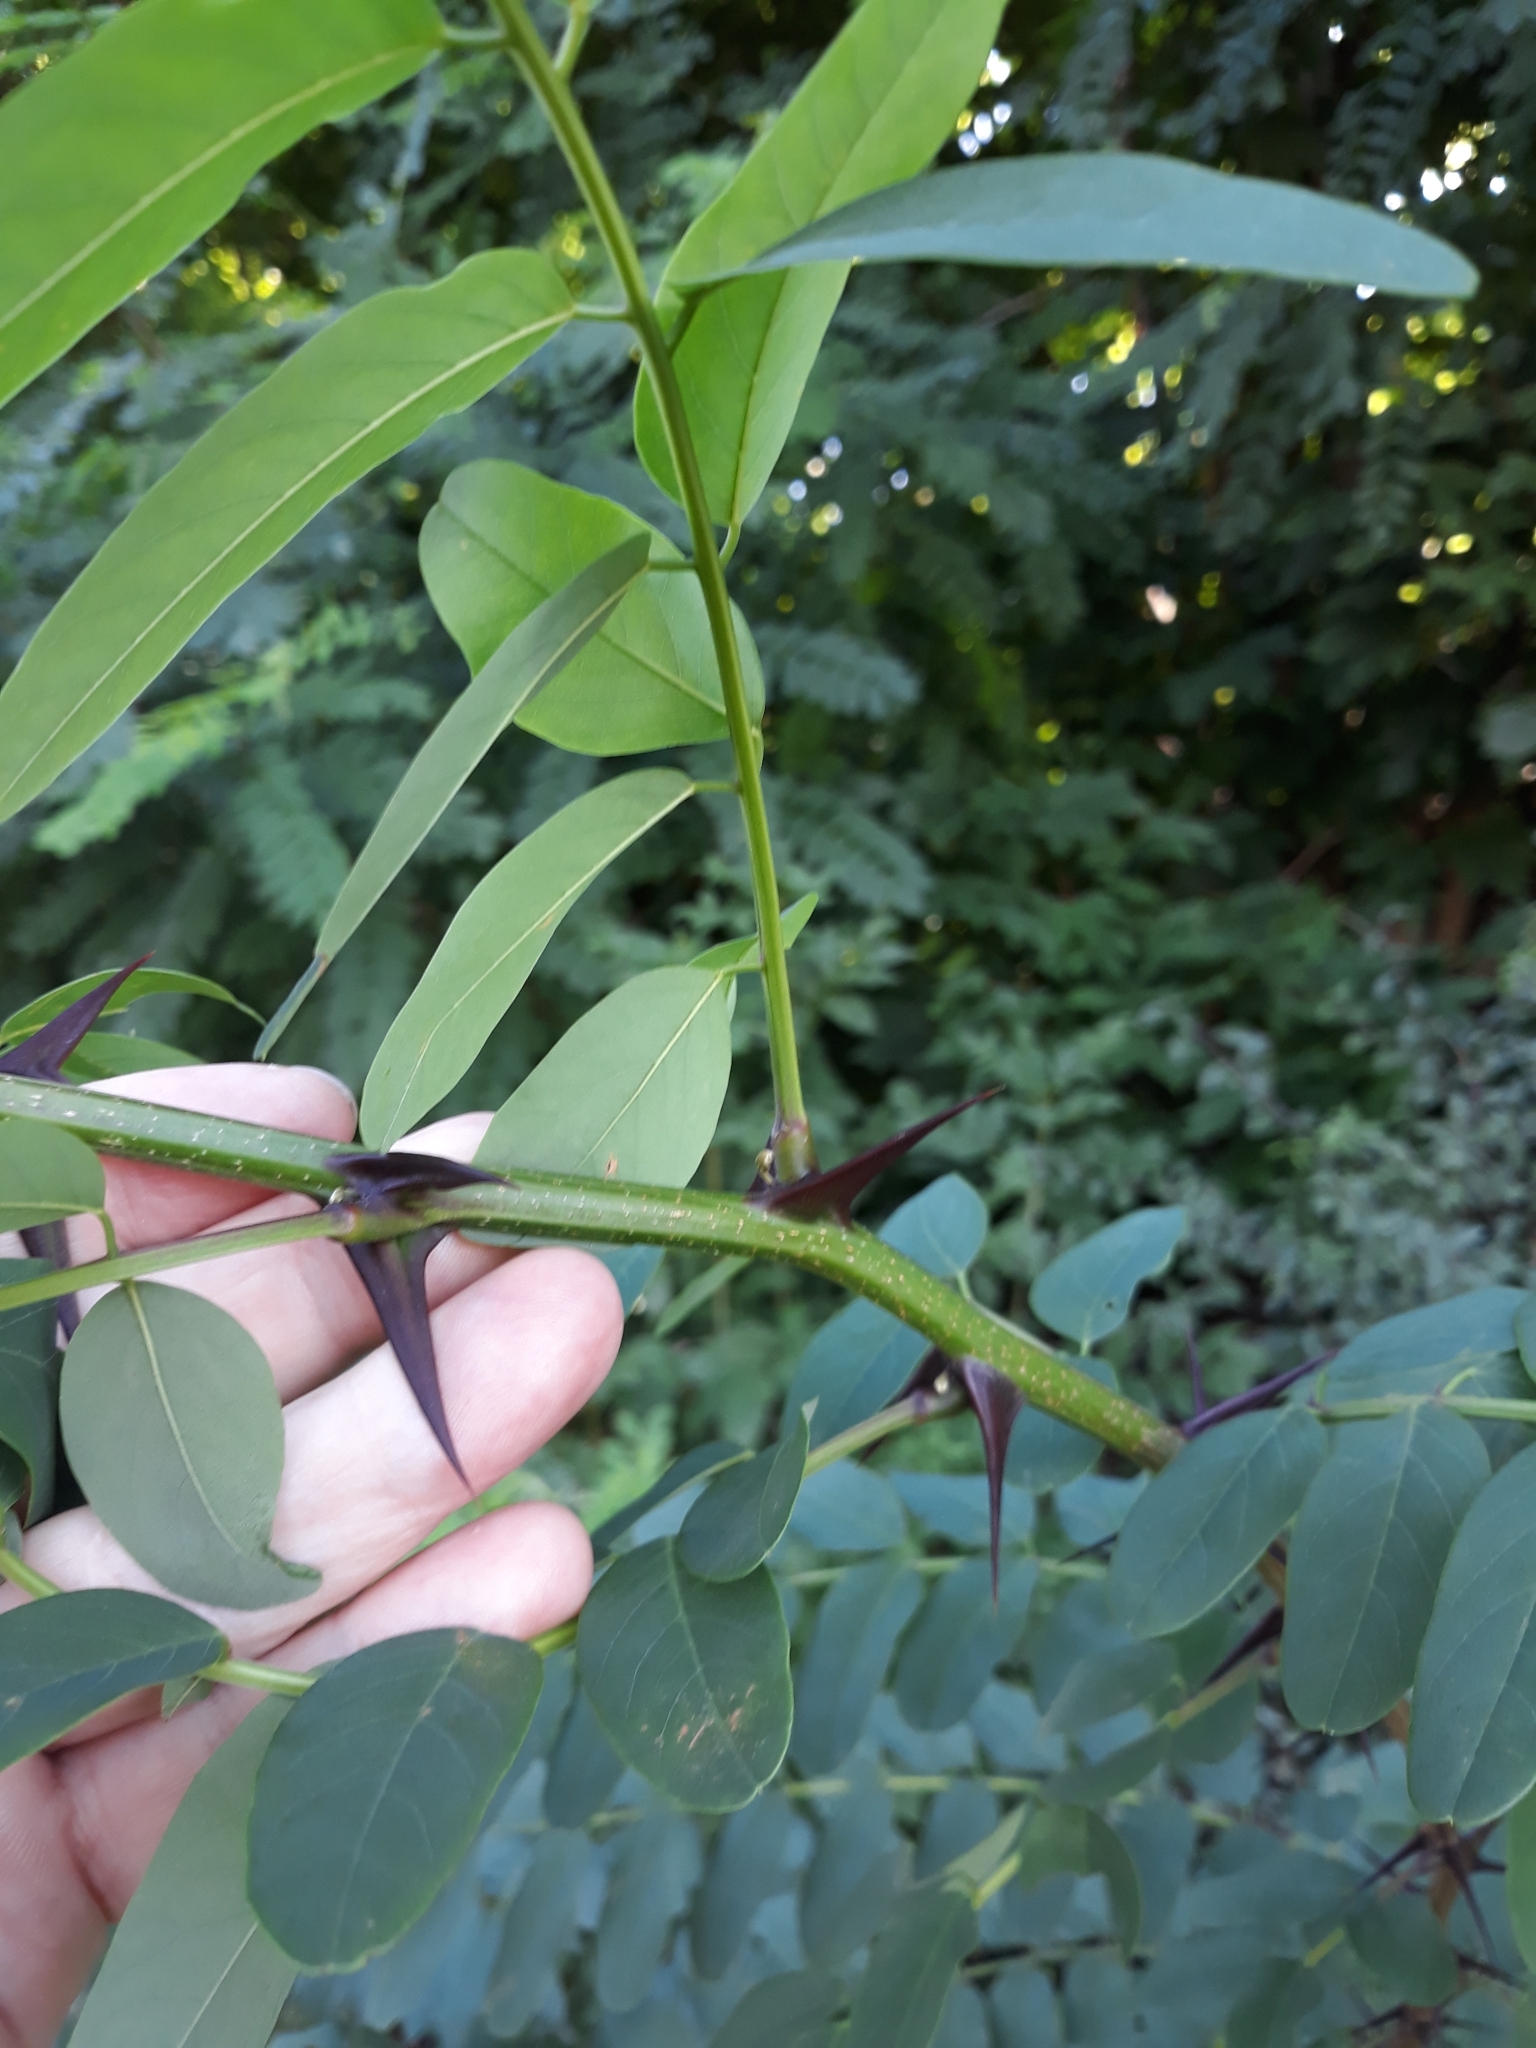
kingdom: Plantae
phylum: Tracheophyta
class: Magnoliopsida
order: Fabales
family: Fabaceae
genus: Robinia
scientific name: Robinia pseudoacacia
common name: Black locust
